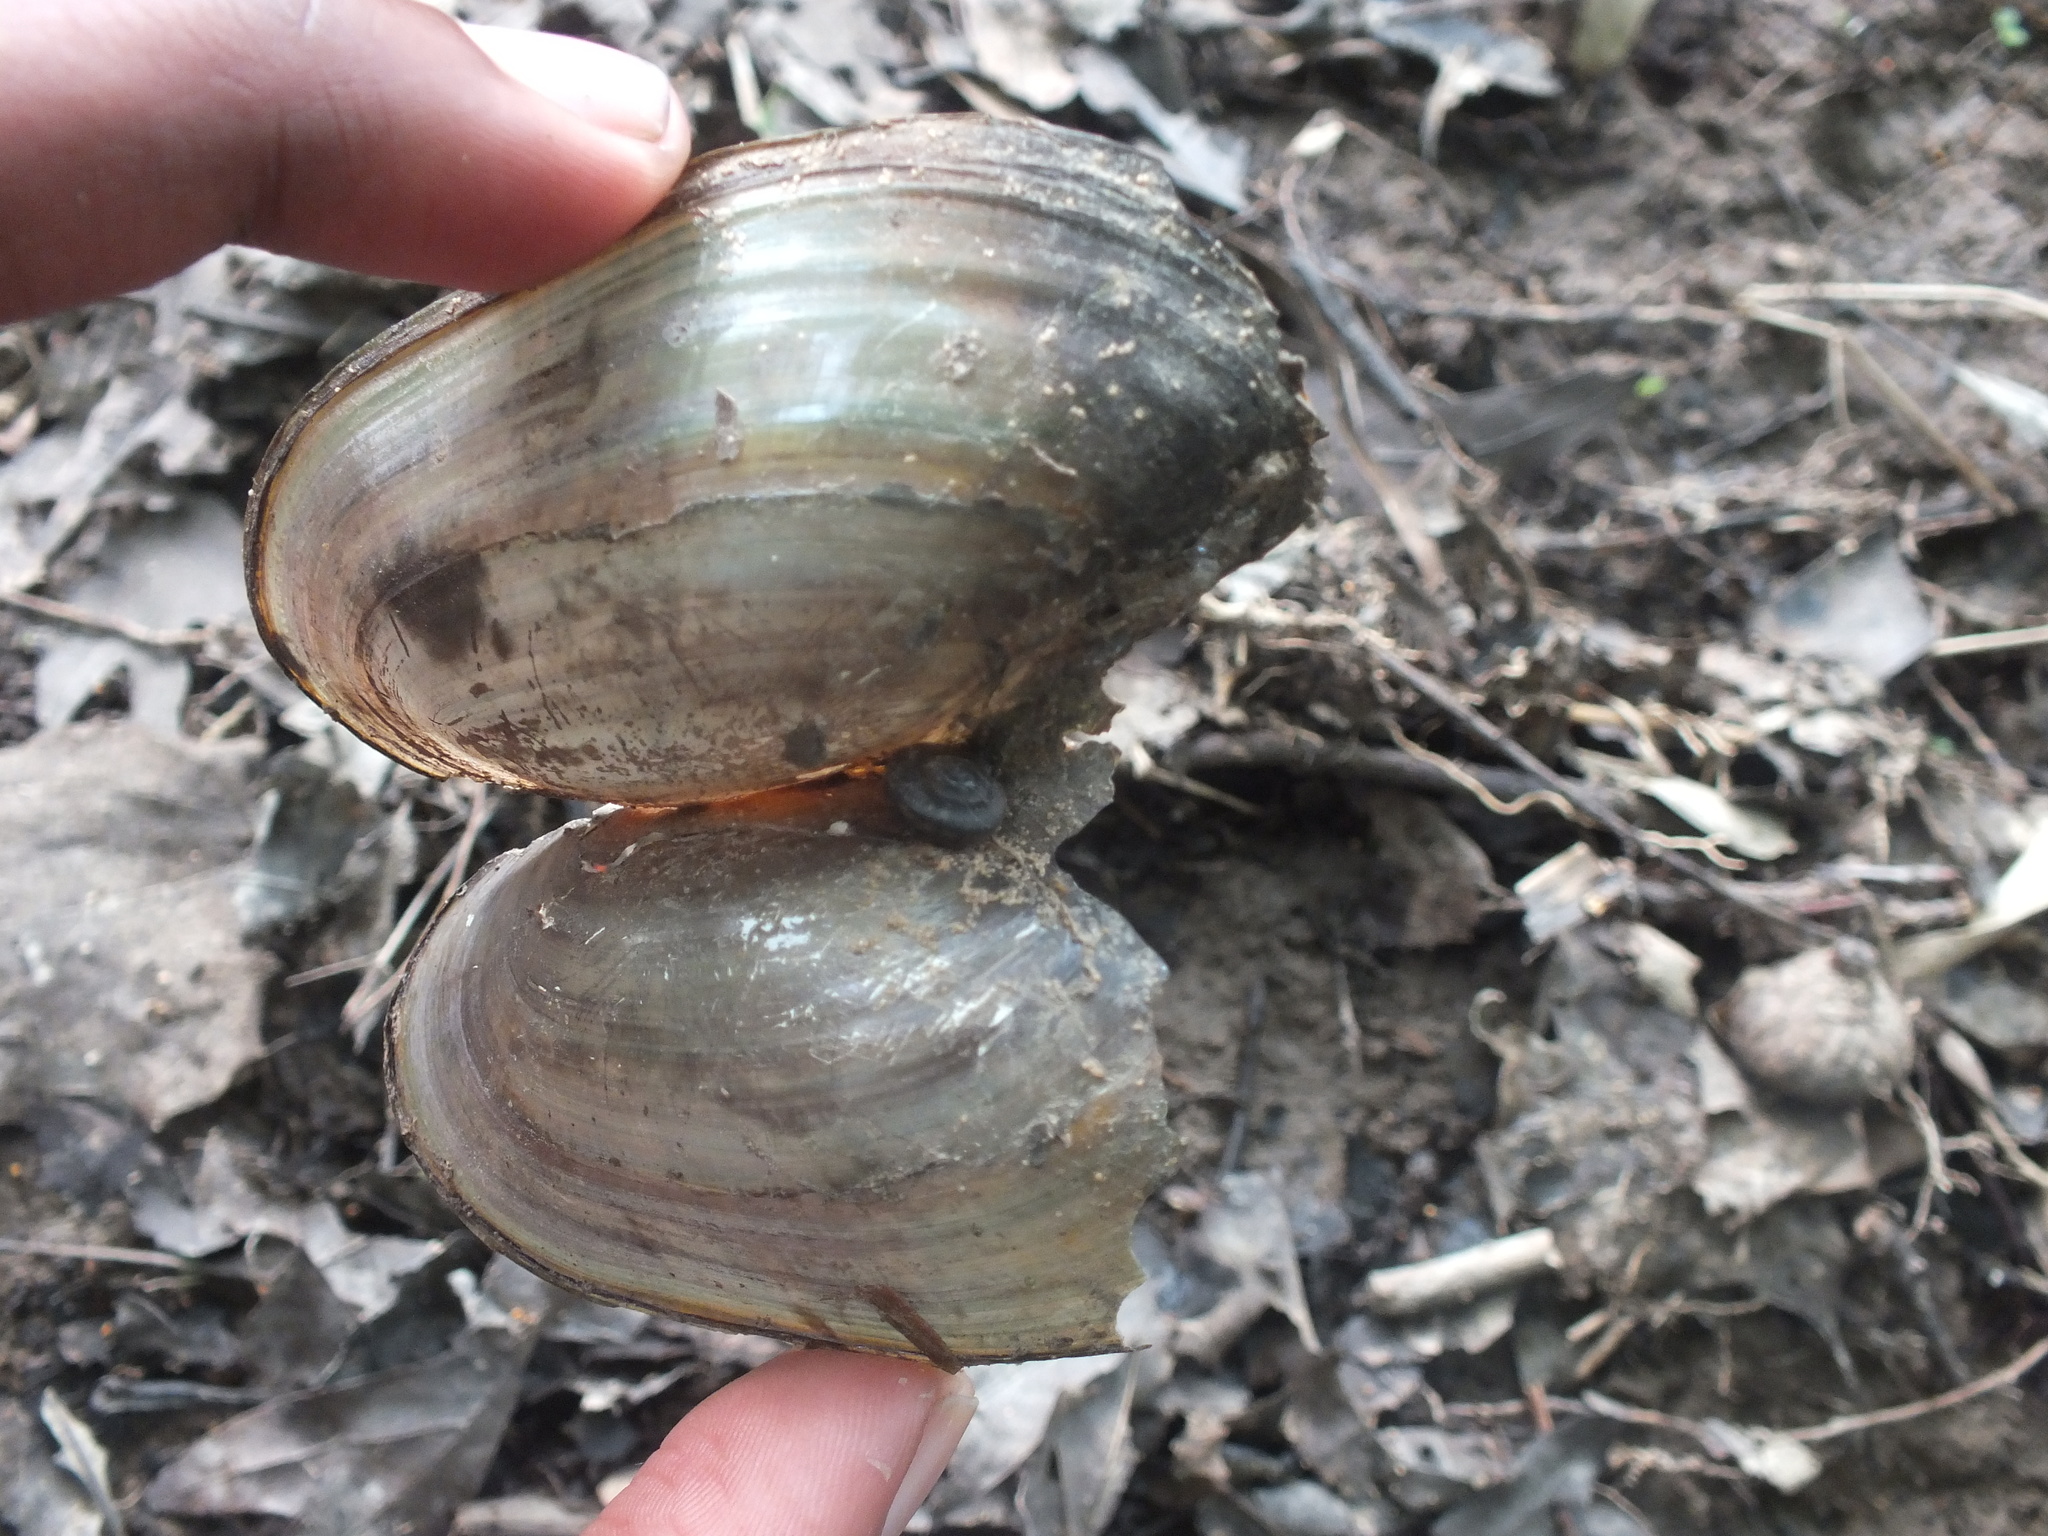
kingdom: Animalia
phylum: Mollusca
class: Bivalvia
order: Unionida
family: Unionidae
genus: Utterbackia
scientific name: Utterbackia imbecillis
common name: Paper pondshell
